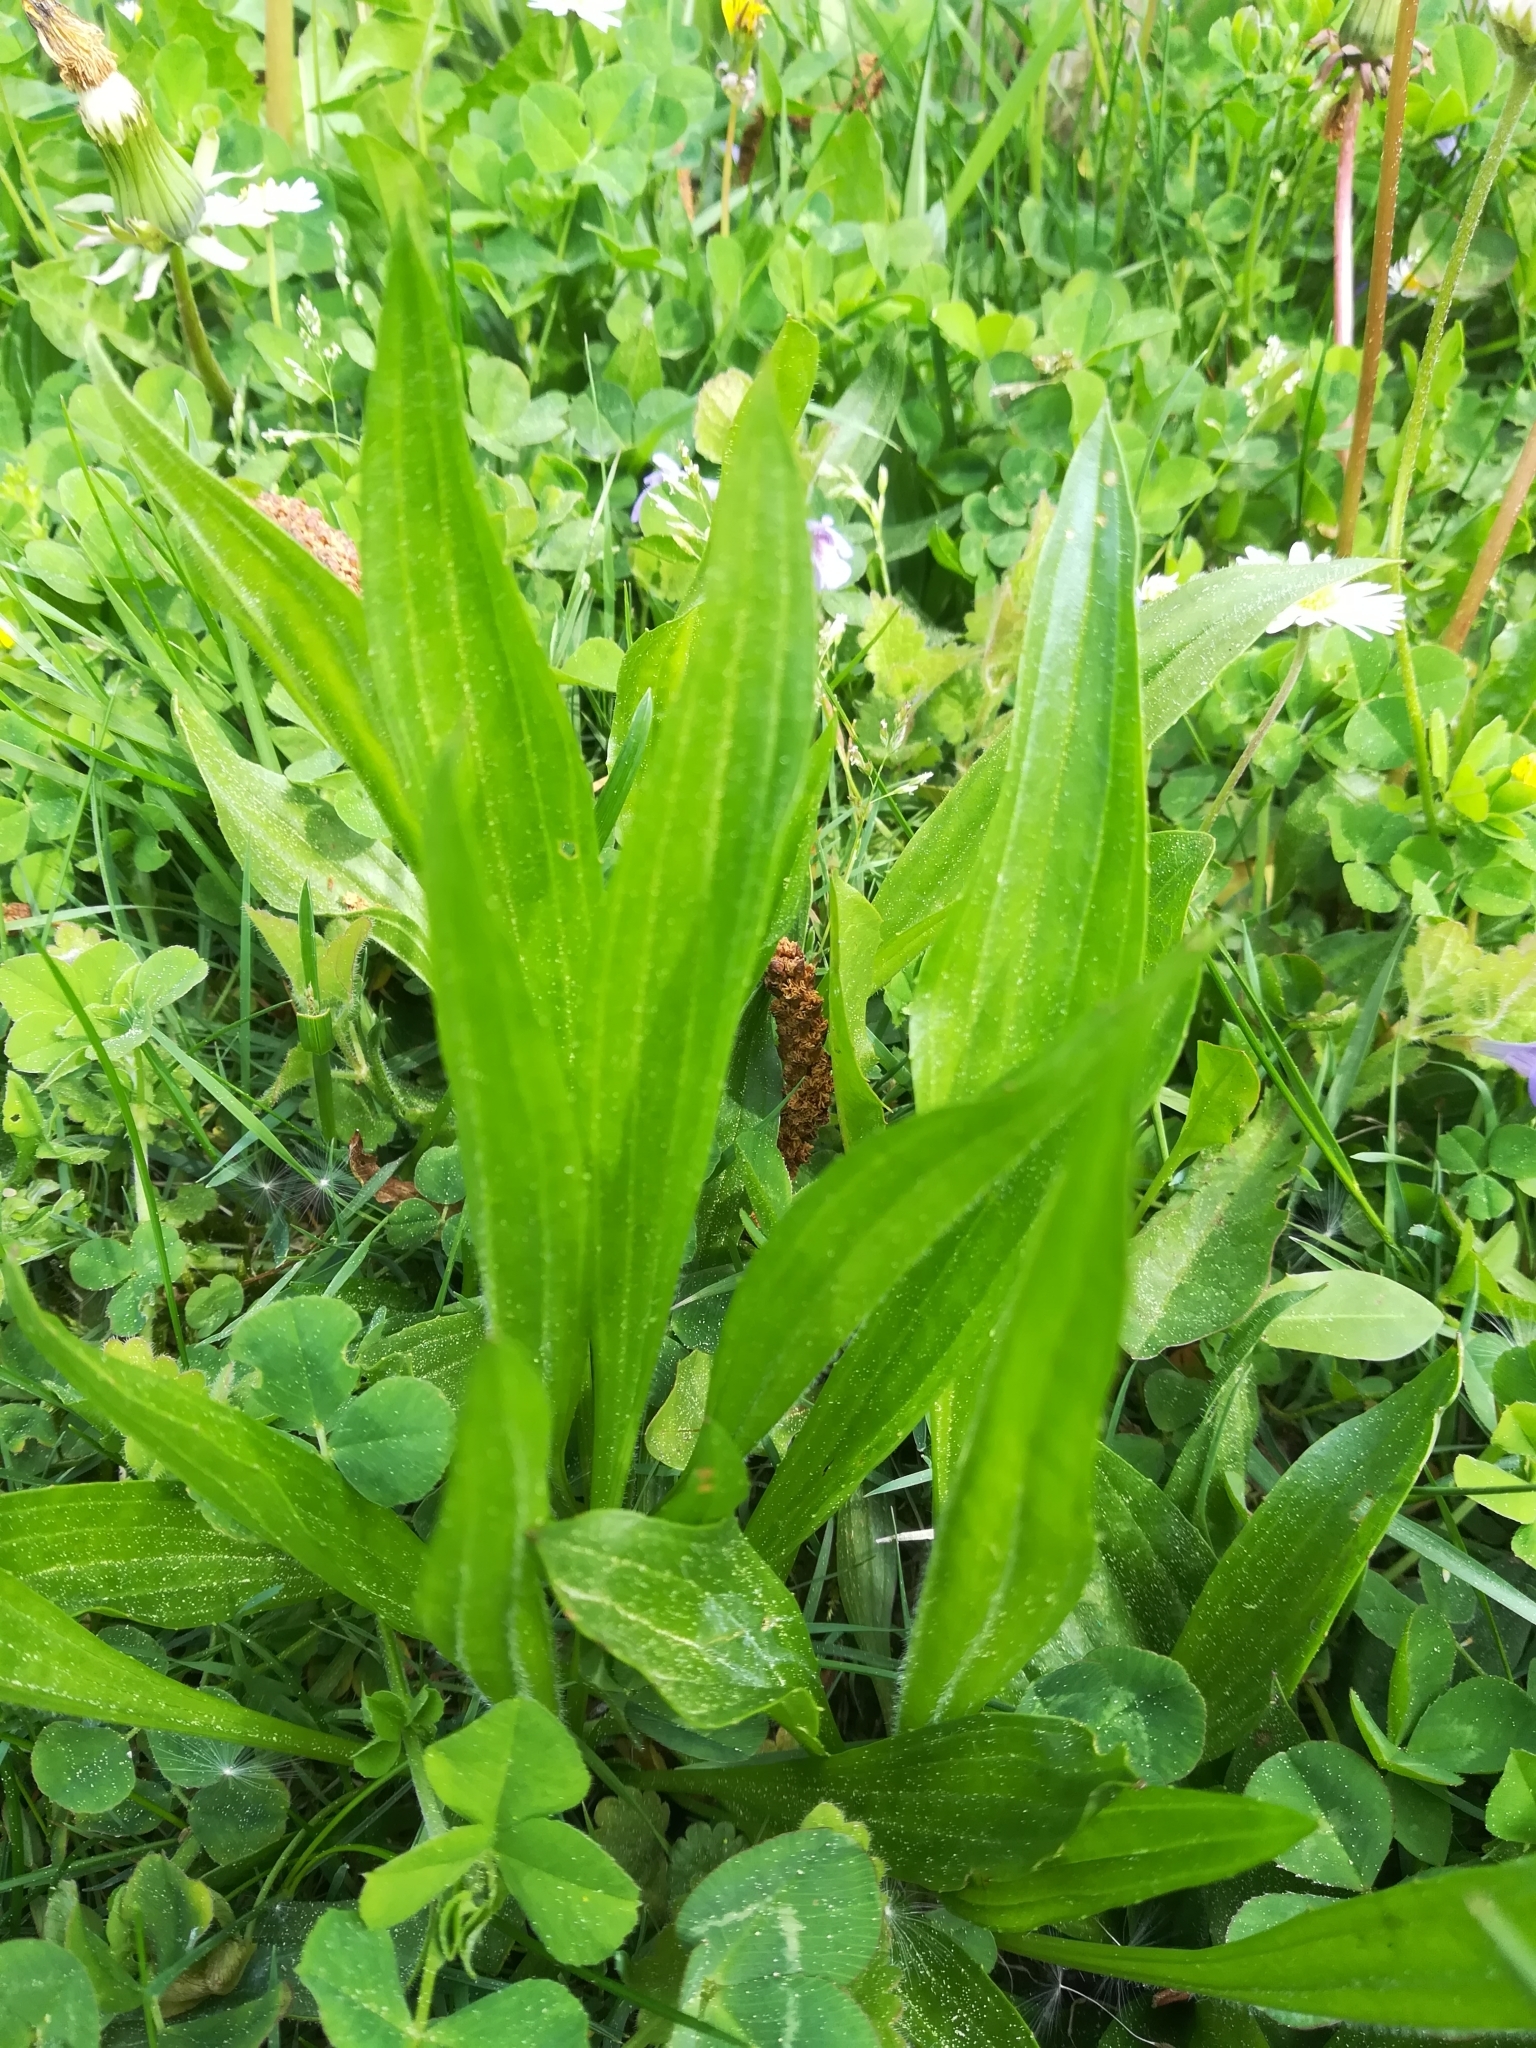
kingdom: Plantae
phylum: Tracheophyta
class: Magnoliopsida
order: Lamiales
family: Plantaginaceae
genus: Plantago
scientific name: Plantago lanceolata
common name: Ribwort plantain
